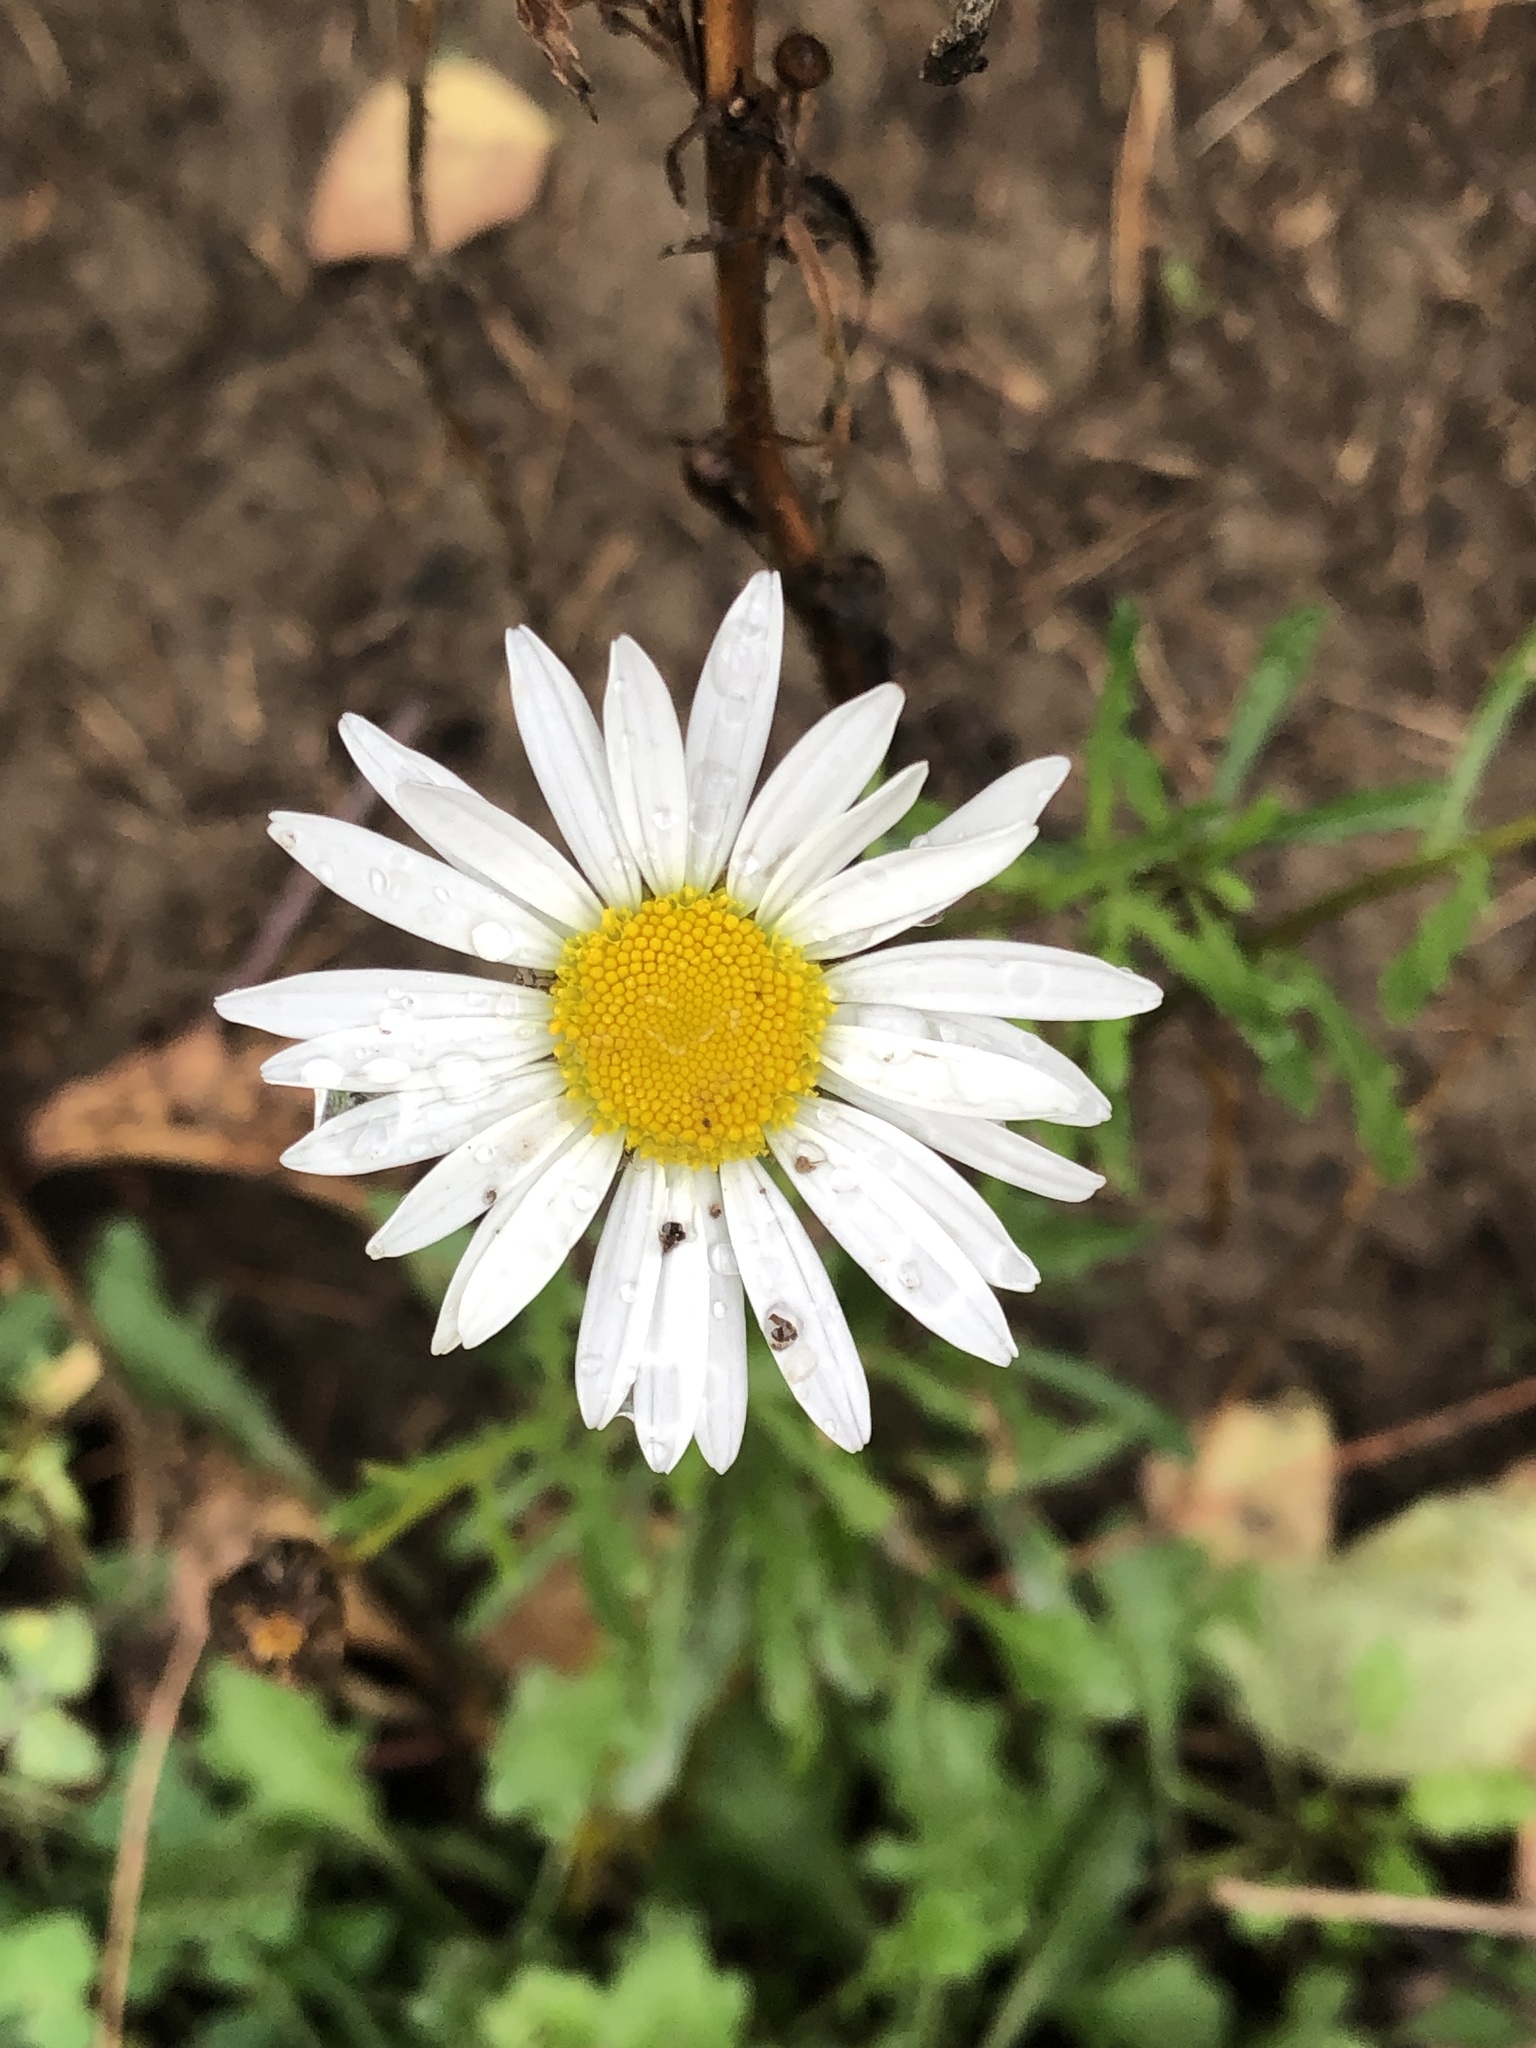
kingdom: Plantae
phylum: Tracheophyta
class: Magnoliopsida
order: Asterales
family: Asteraceae
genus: Leucanthemum
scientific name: Leucanthemum vulgare
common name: Oxeye daisy
